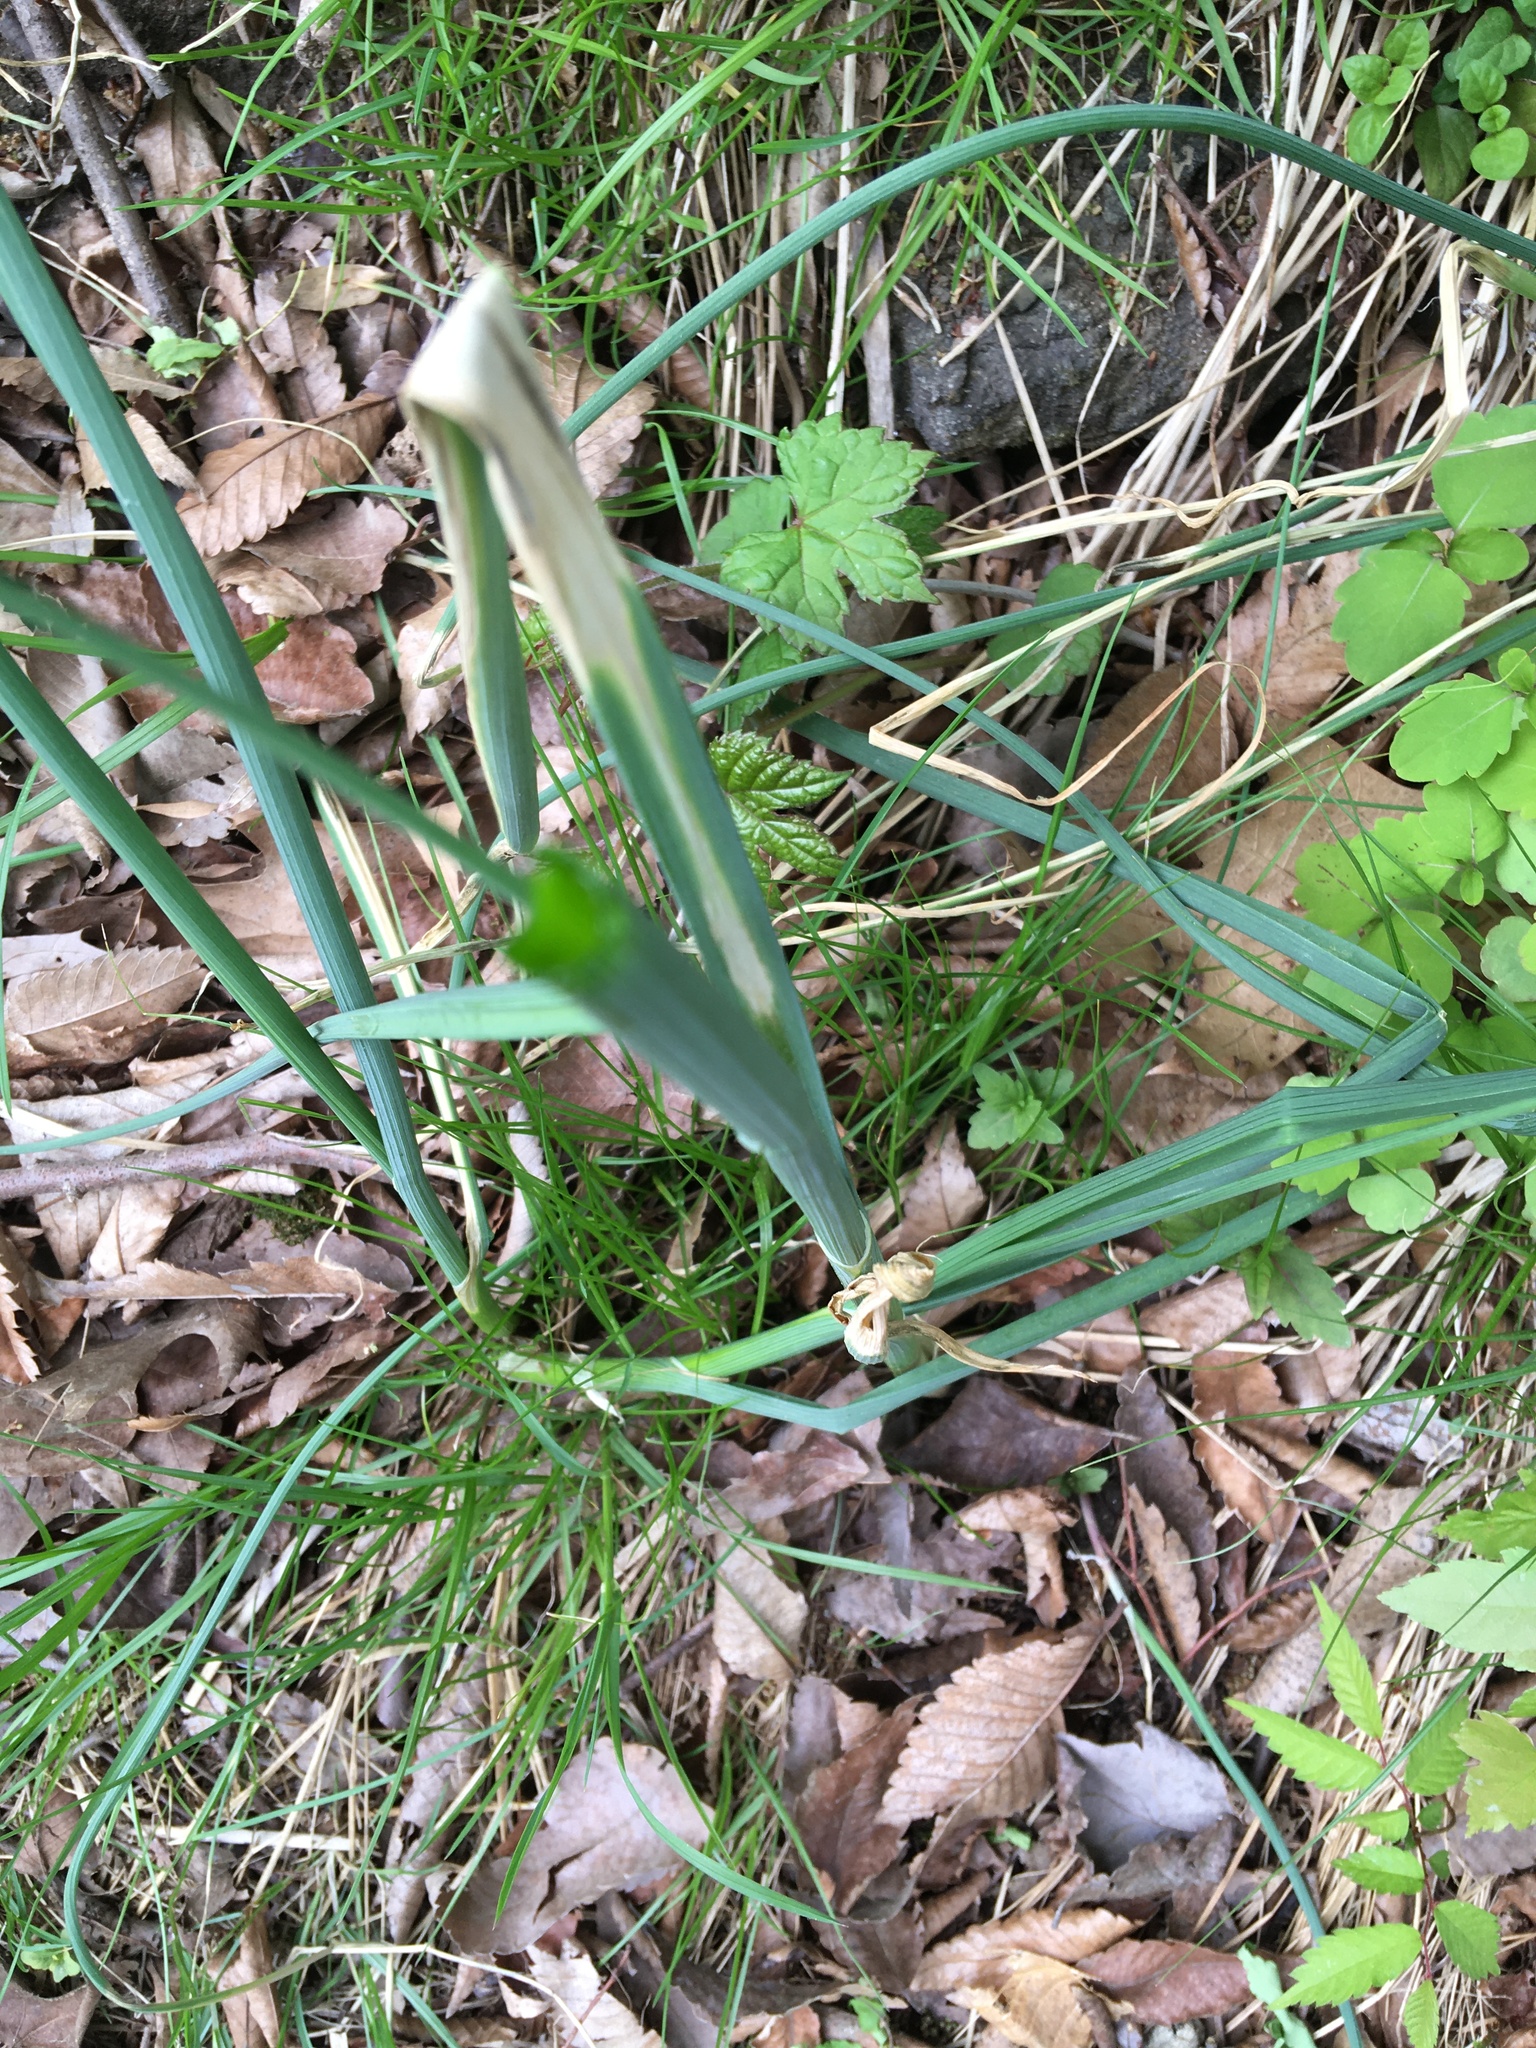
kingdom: Plantae
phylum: Tracheophyta
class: Liliopsida
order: Asparagales
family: Amaryllidaceae
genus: Allium
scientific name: Allium canadense
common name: Meadow garlic
